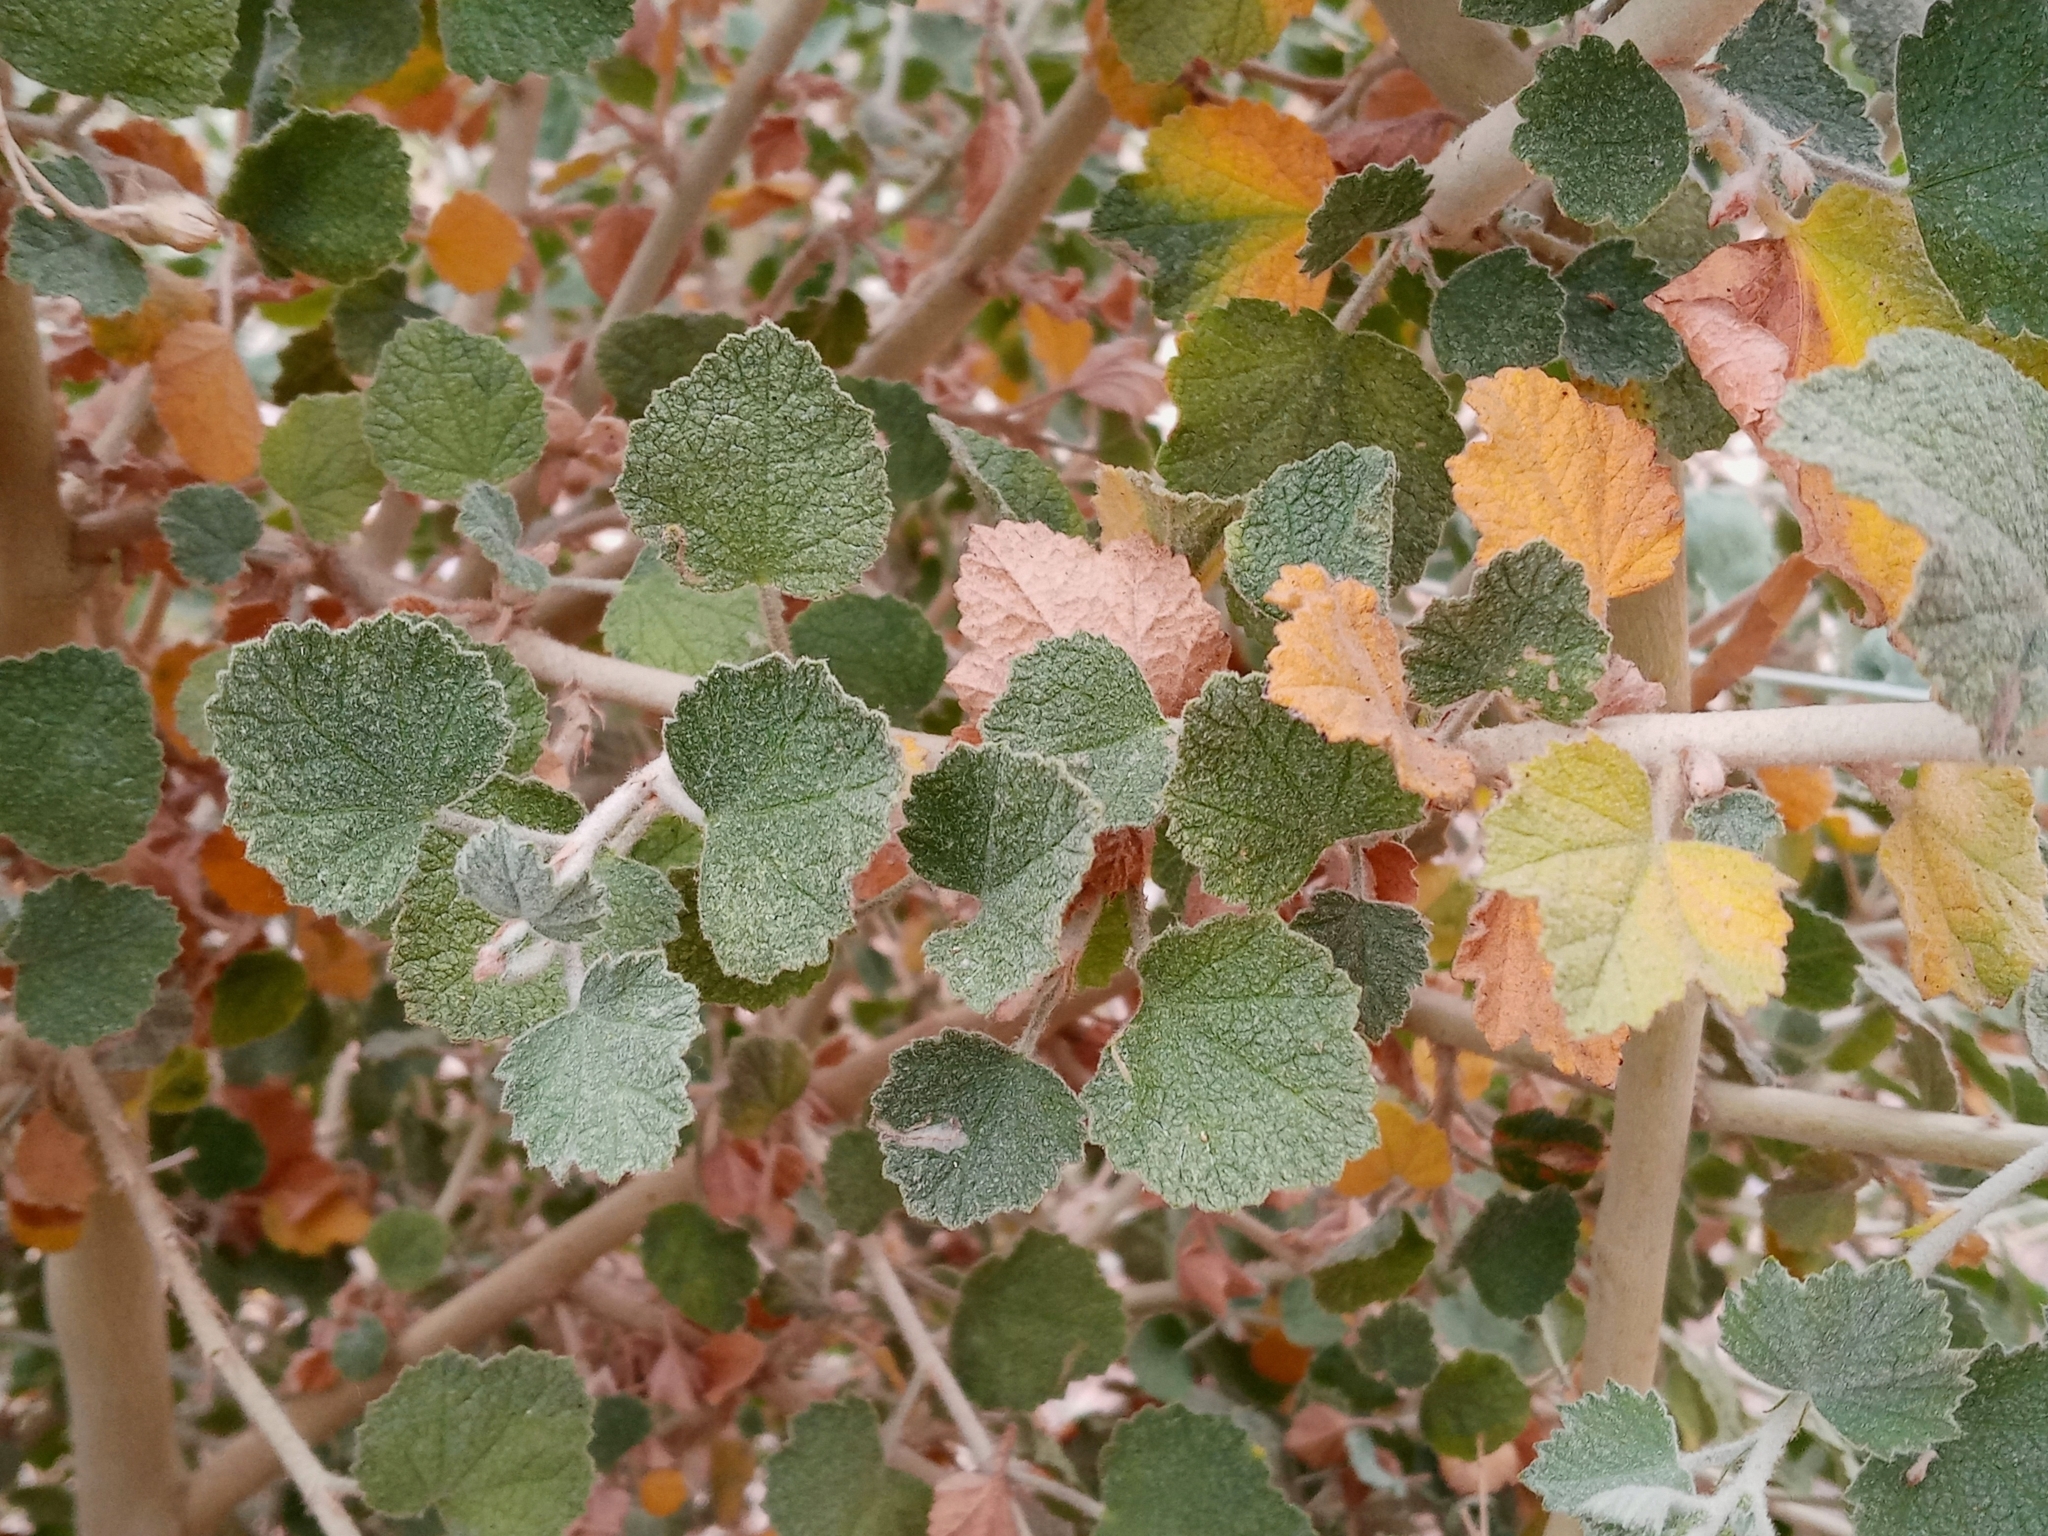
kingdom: Plantae
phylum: Tracheophyta
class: Magnoliopsida
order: Malvales
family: Malvaceae
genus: Malacothamnus
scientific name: Malacothamnus marrubioides
